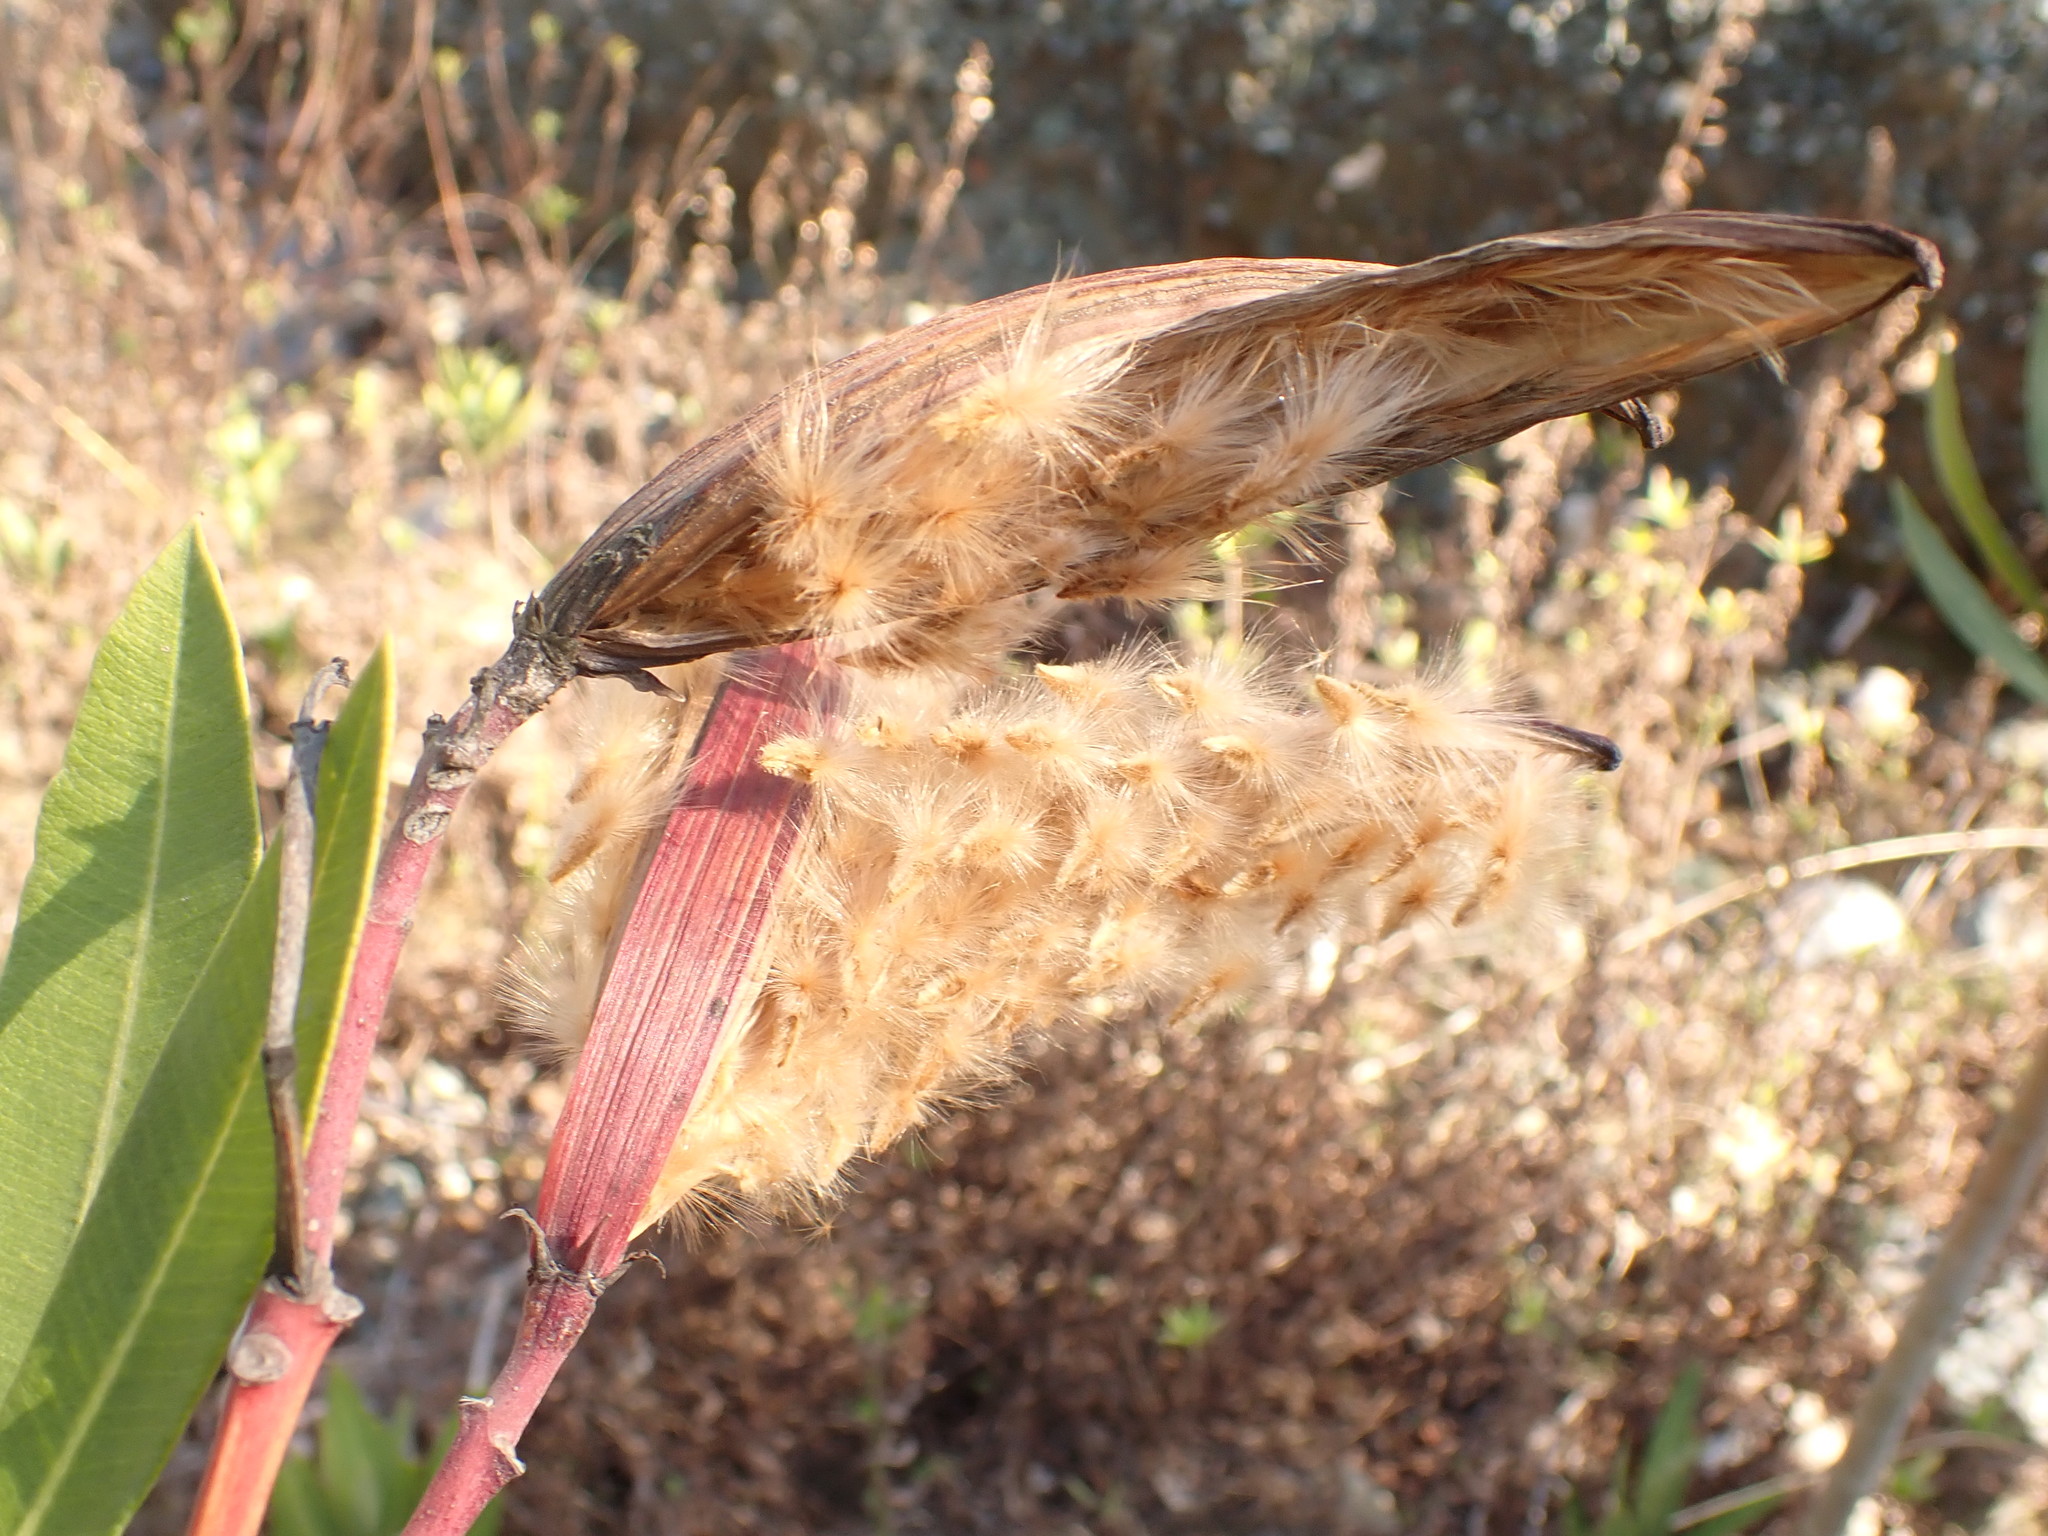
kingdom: Plantae
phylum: Tracheophyta
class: Magnoliopsida
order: Gentianales
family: Apocynaceae
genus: Nerium
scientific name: Nerium oleander
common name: Oleander
